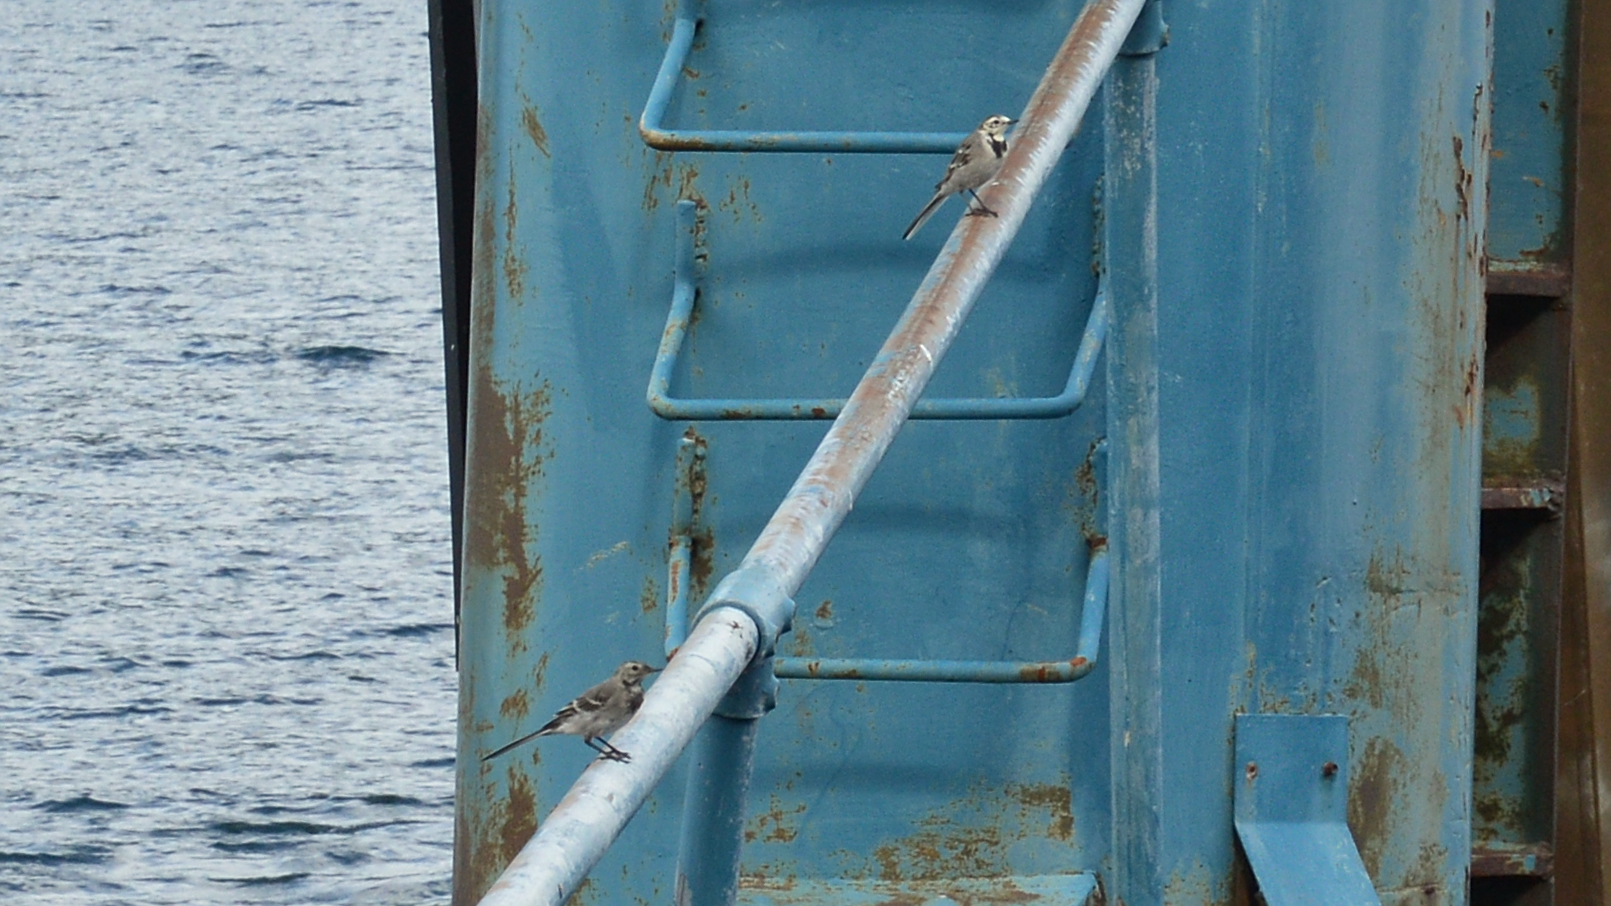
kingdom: Animalia
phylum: Chordata
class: Aves
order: Passeriformes
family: Motacillidae
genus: Motacilla
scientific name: Motacilla alba
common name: White wagtail
